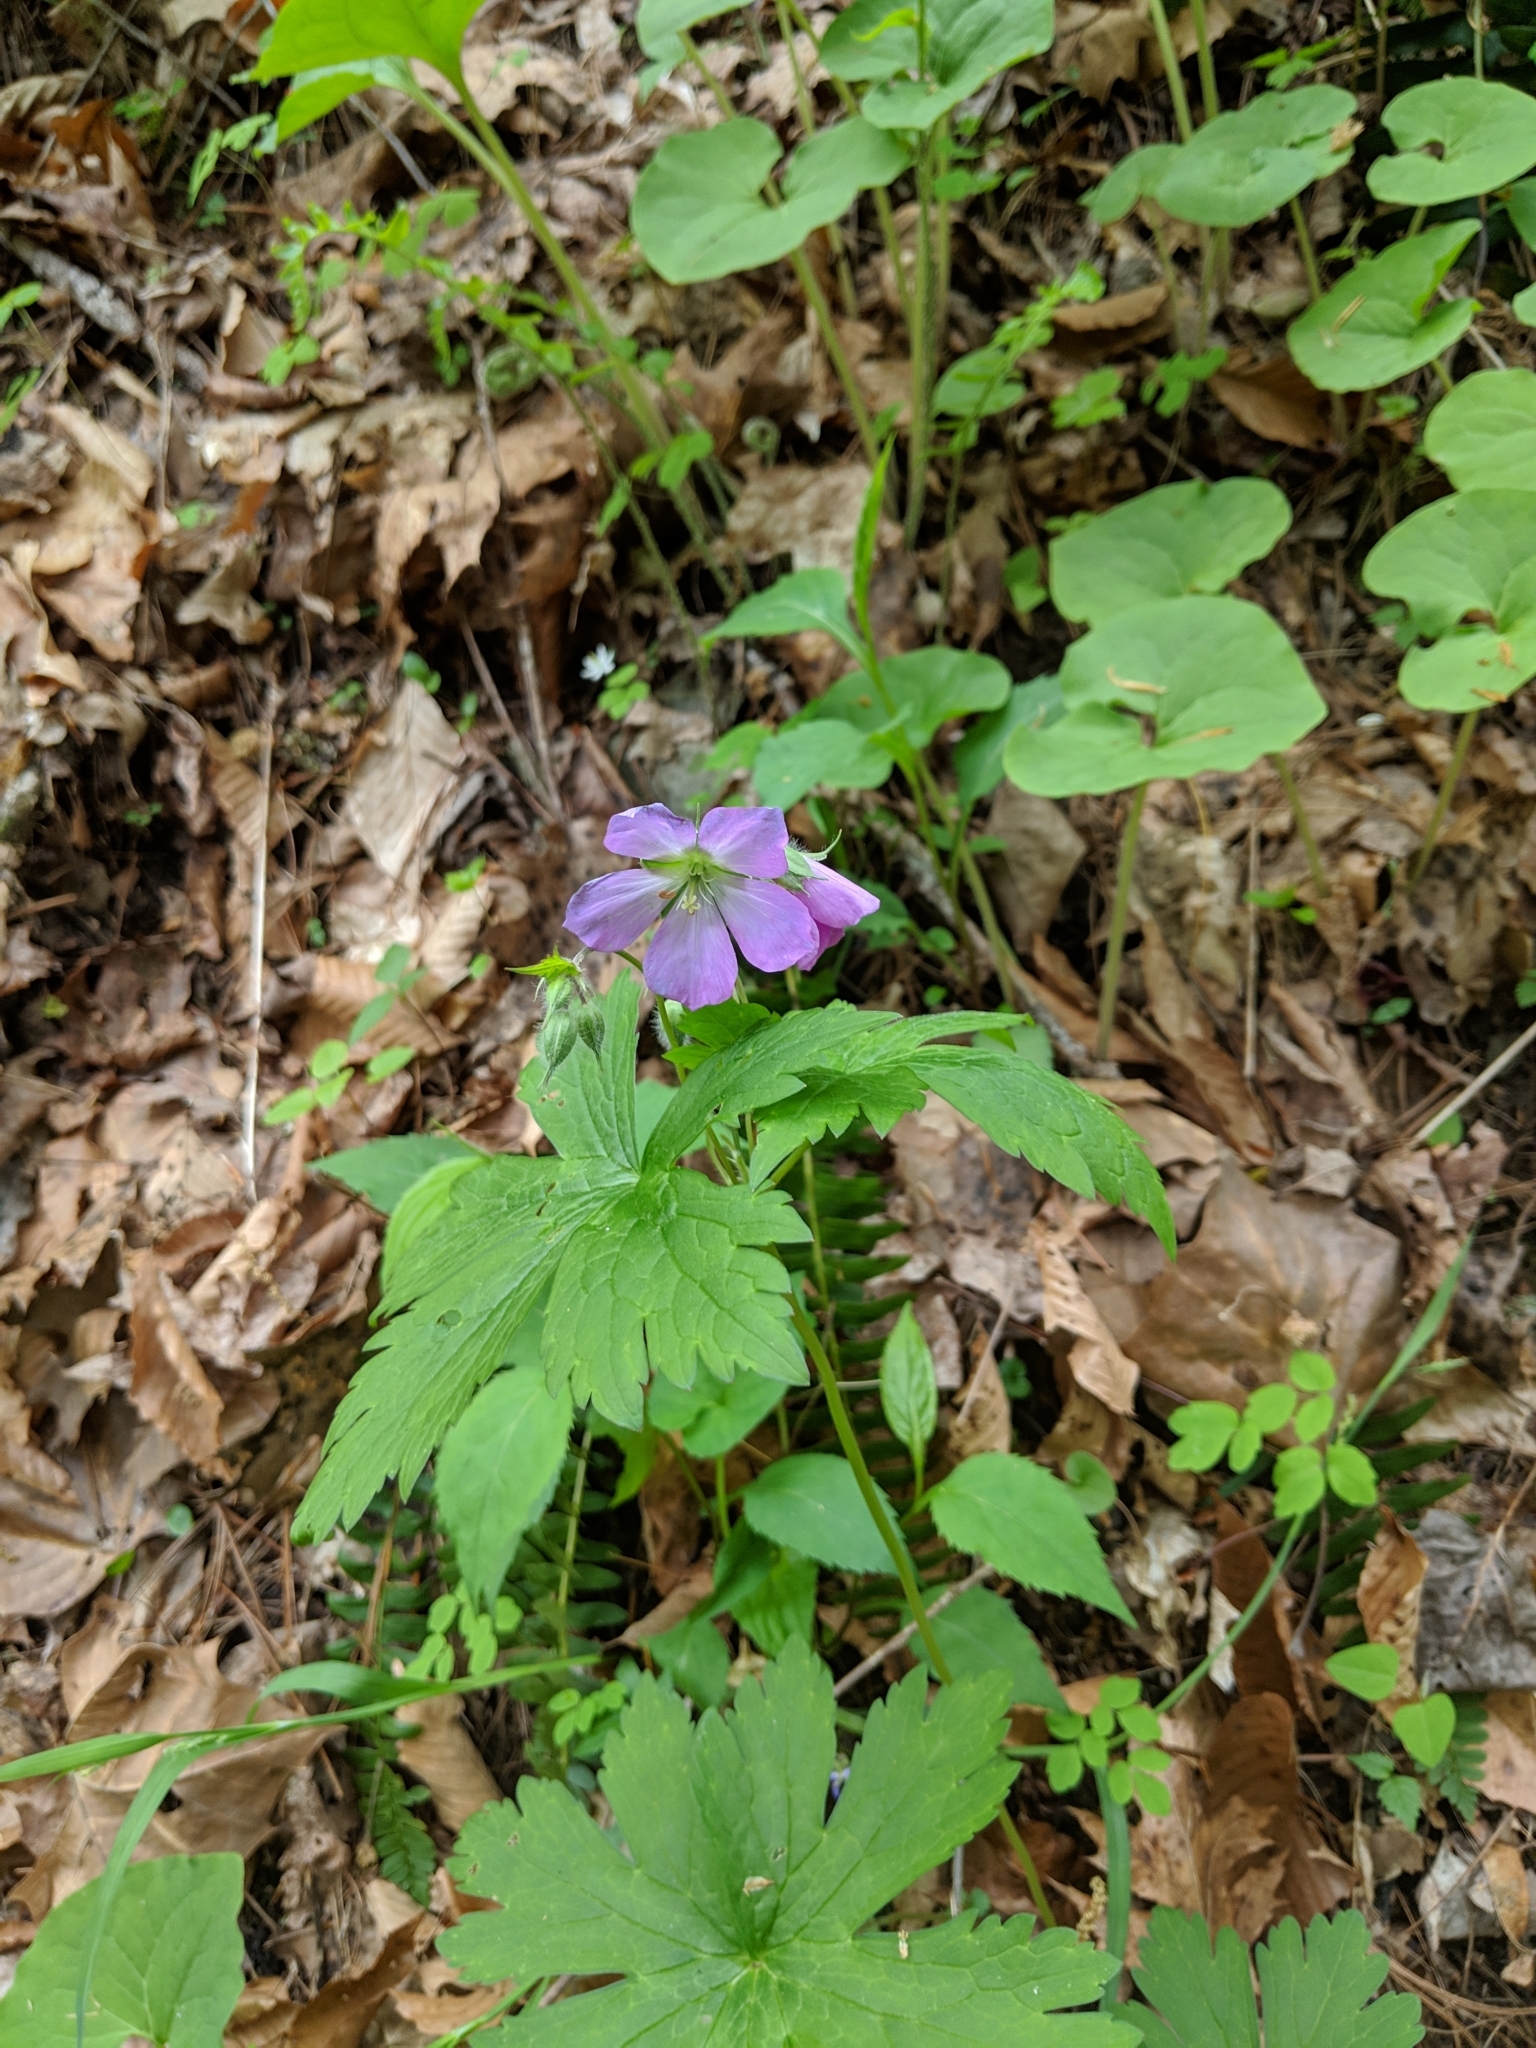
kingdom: Plantae
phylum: Tracheophyta
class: Magnoliopsida
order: Geraniales
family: Geraniaceae
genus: Geranium
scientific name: Geranium maculatum
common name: Spotted geranium
